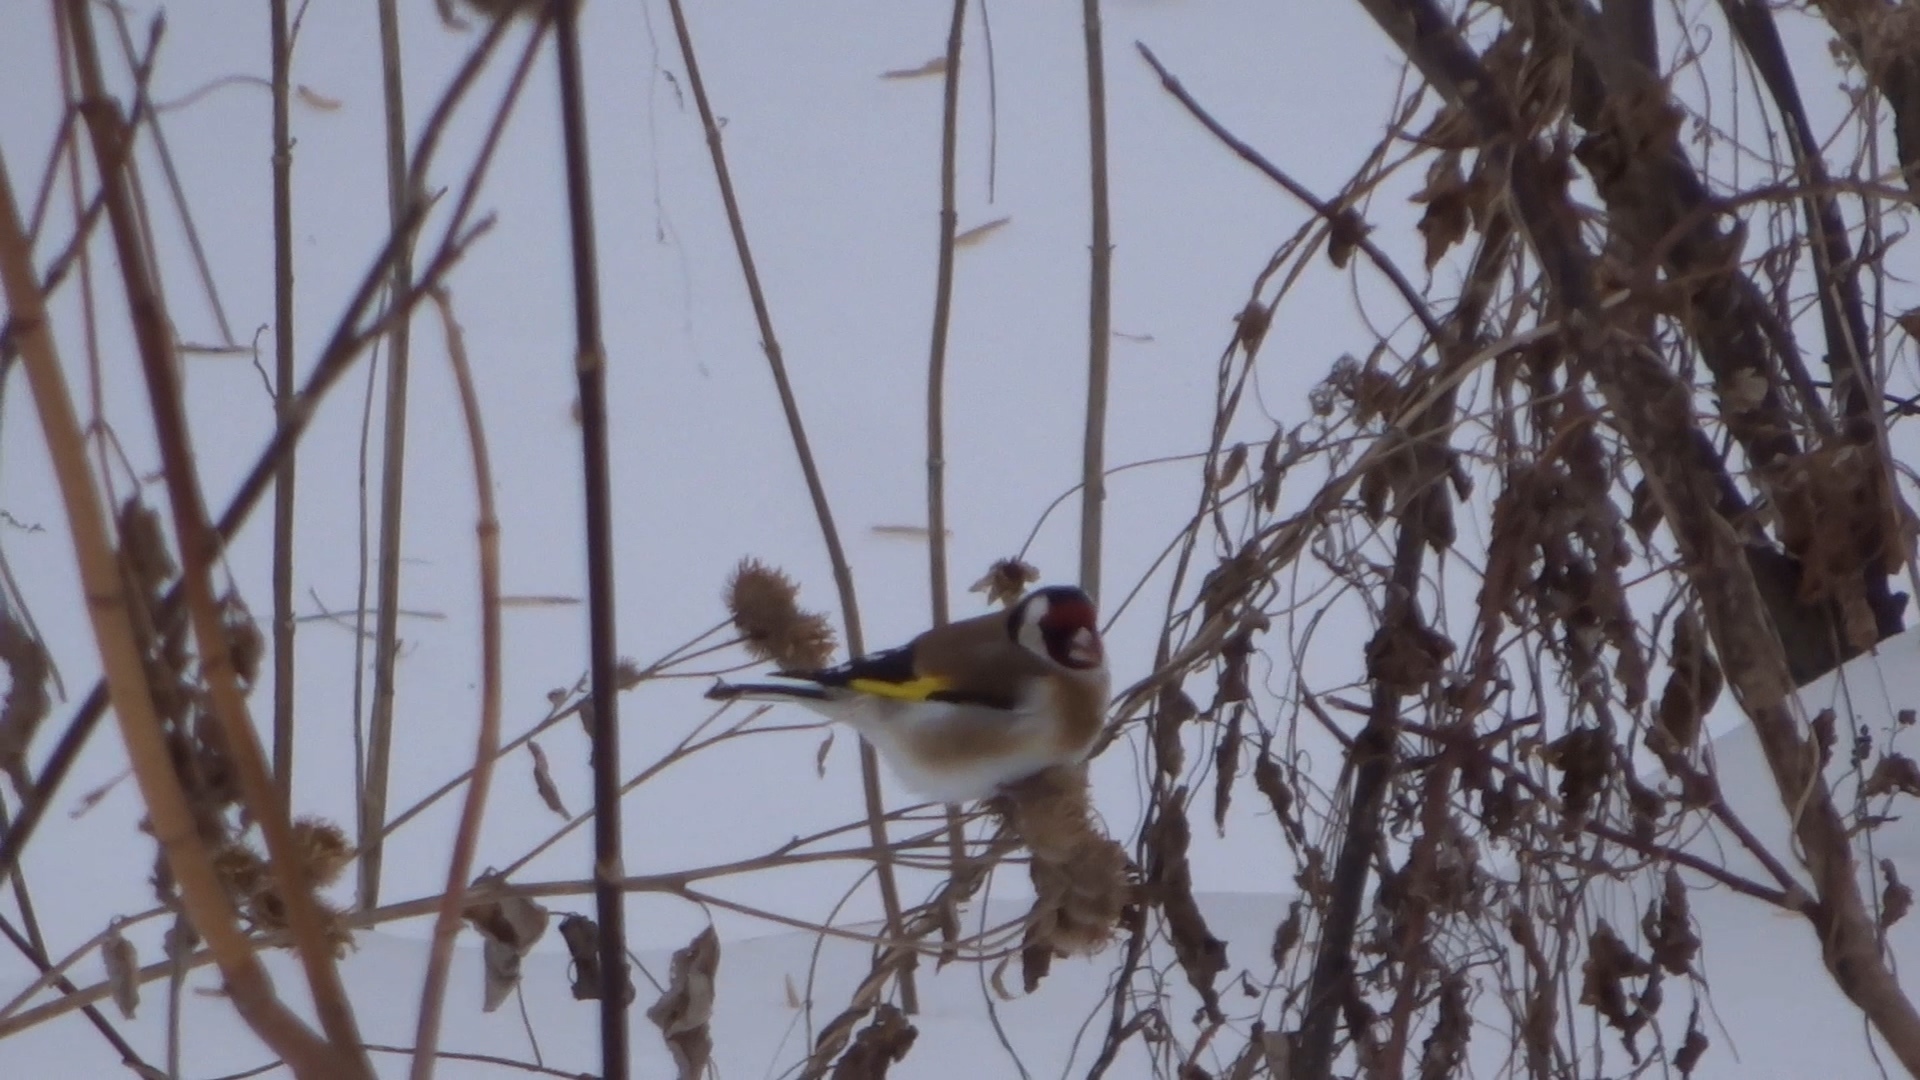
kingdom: Animalia
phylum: Chordata
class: Aves
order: Passeriformes
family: Fringillidae
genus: Carduelis
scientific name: Carduelis carduelis
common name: European goldfinch
